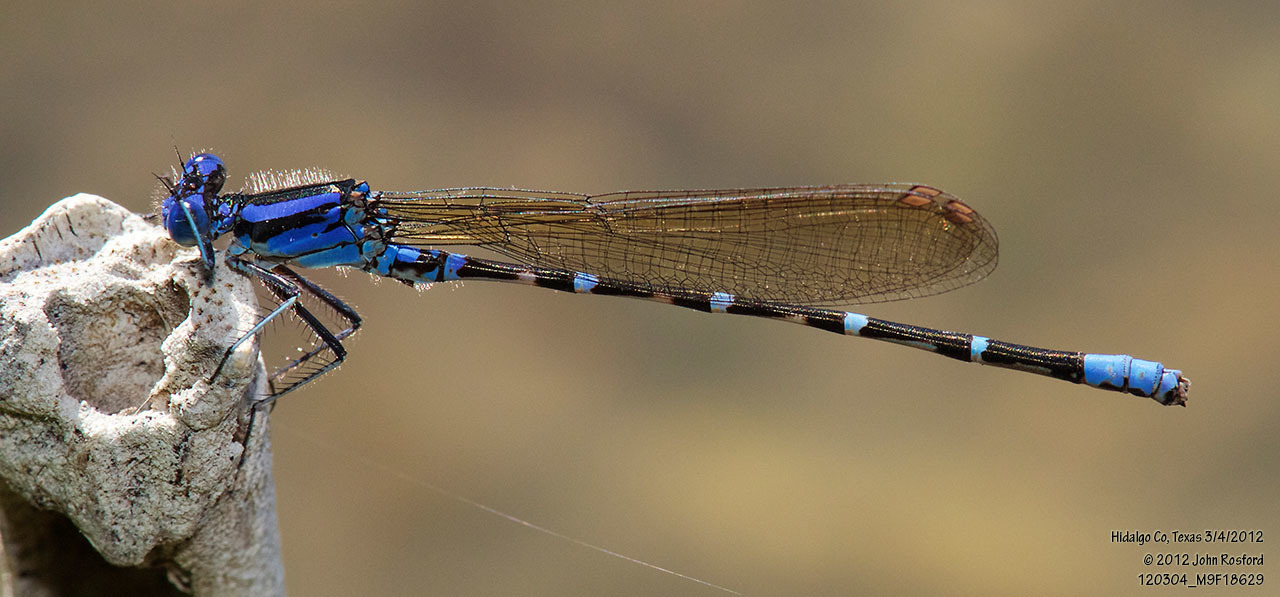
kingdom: Animalia
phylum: Arthropoda
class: Insecta
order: Odonata
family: Coenagrionidae
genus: Argia
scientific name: Argia sedula
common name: Blue-ringed dancer
